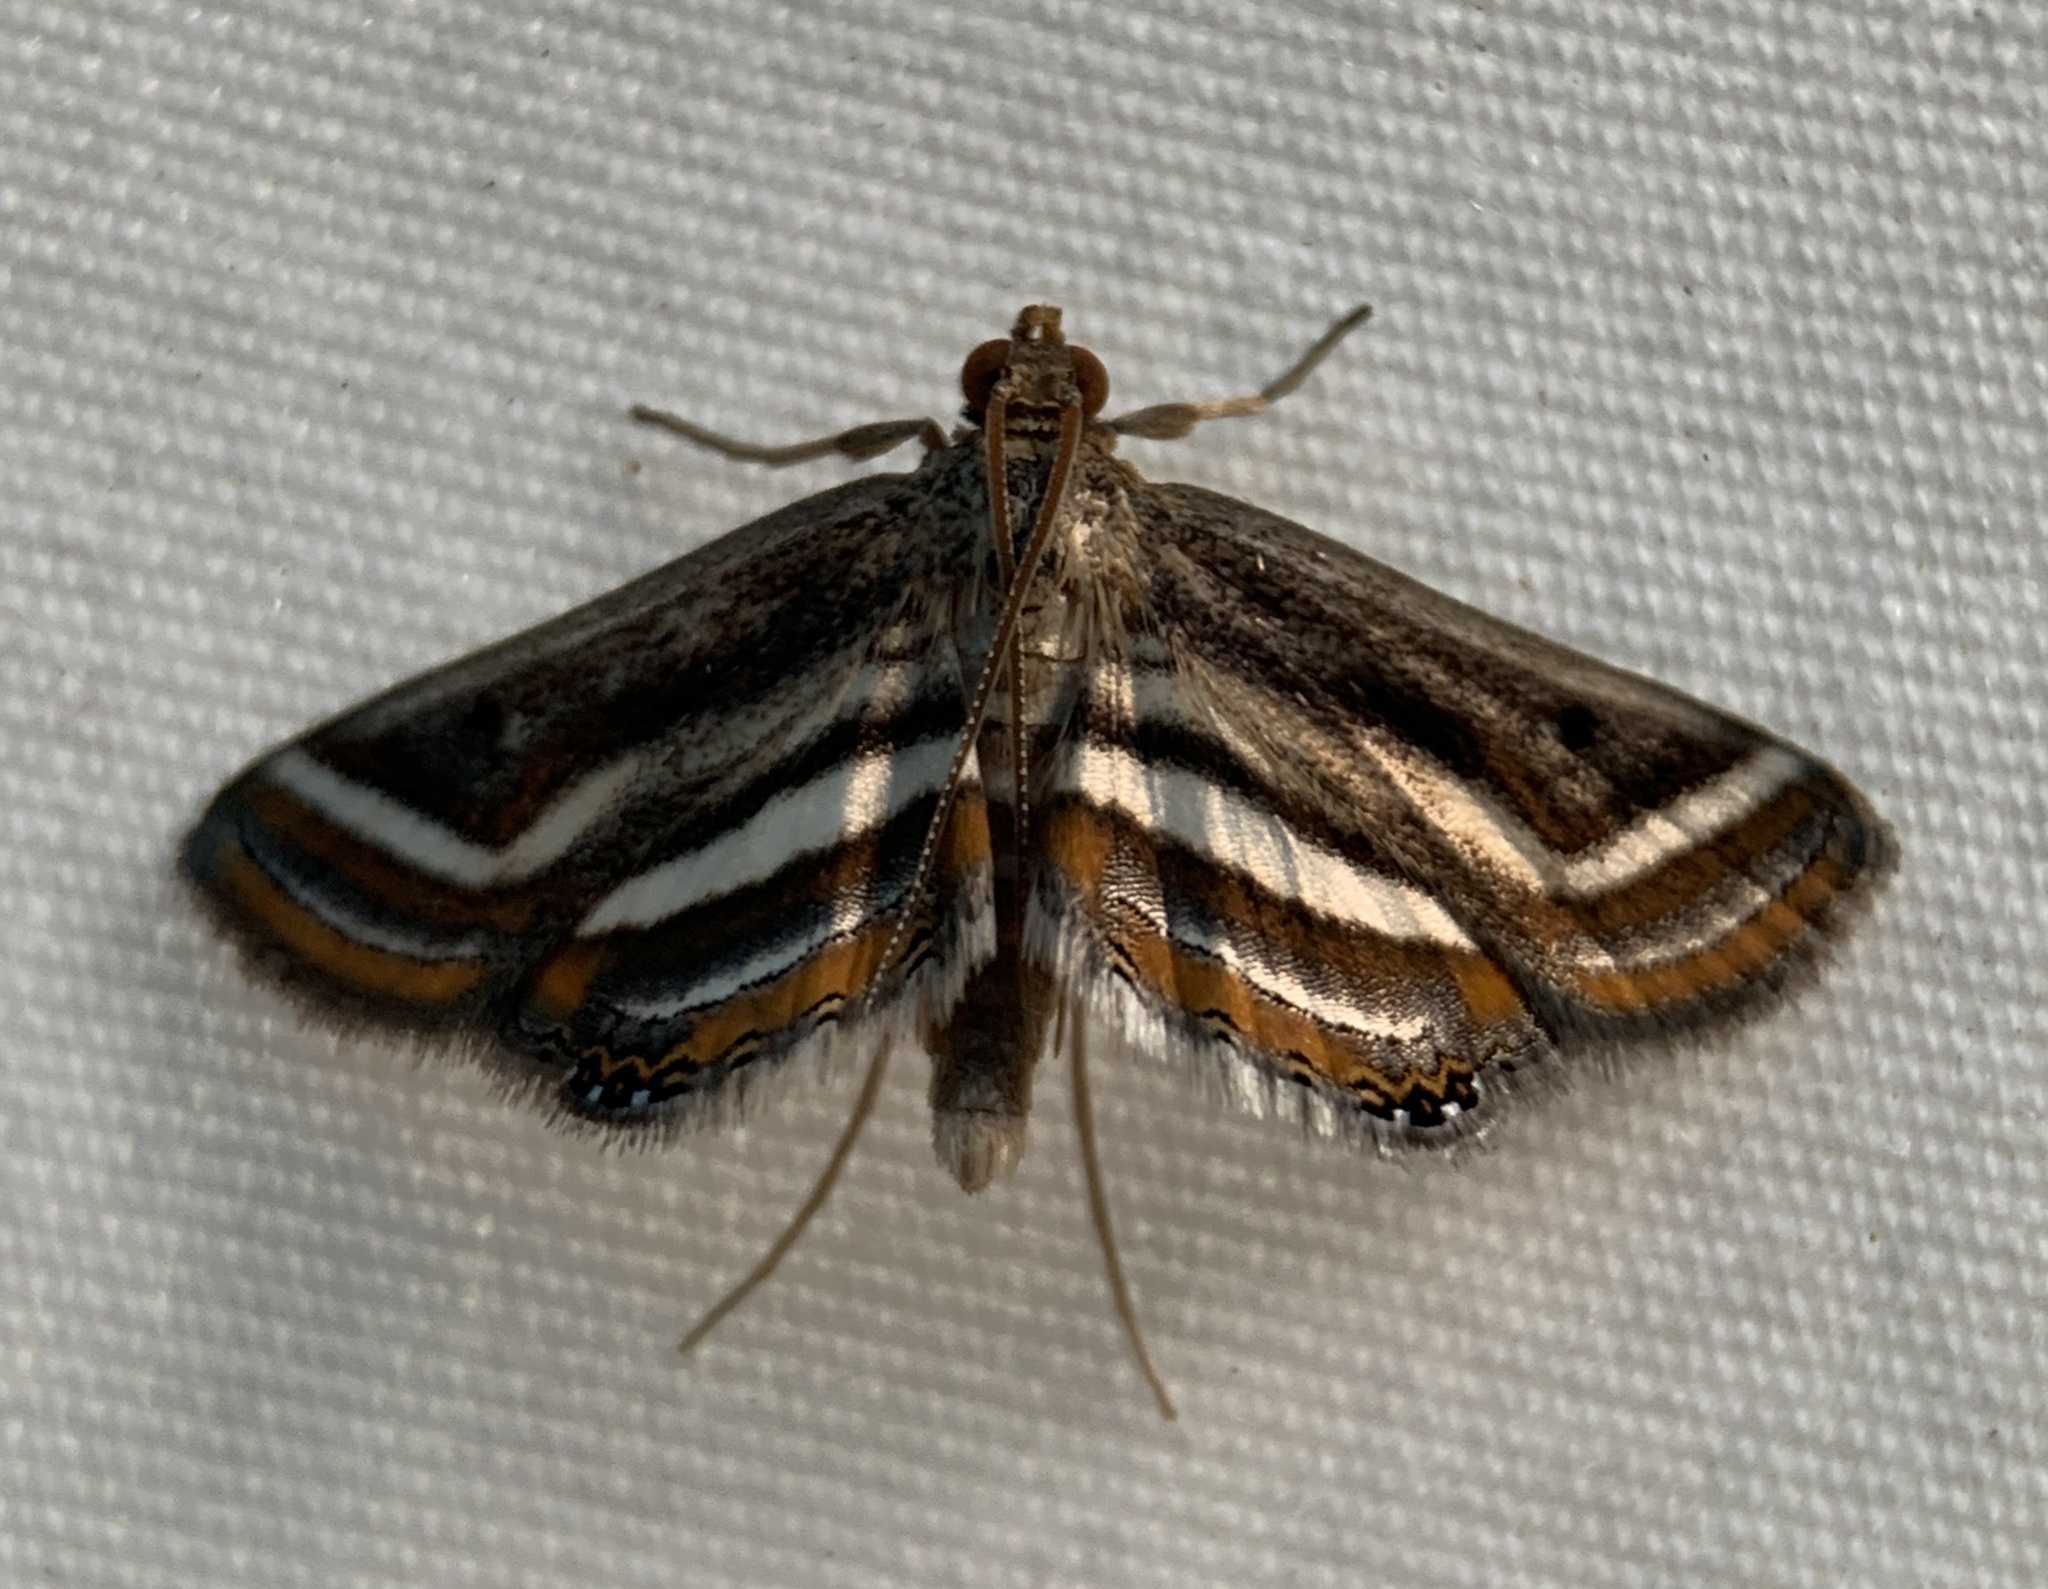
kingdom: Animalia
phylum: Arthropoda
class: Insecta
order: Lepidoptera
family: Crambidae
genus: Parapoynx
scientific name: Parapoynx seminealis
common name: Floating-heart waterlily leafcutter
